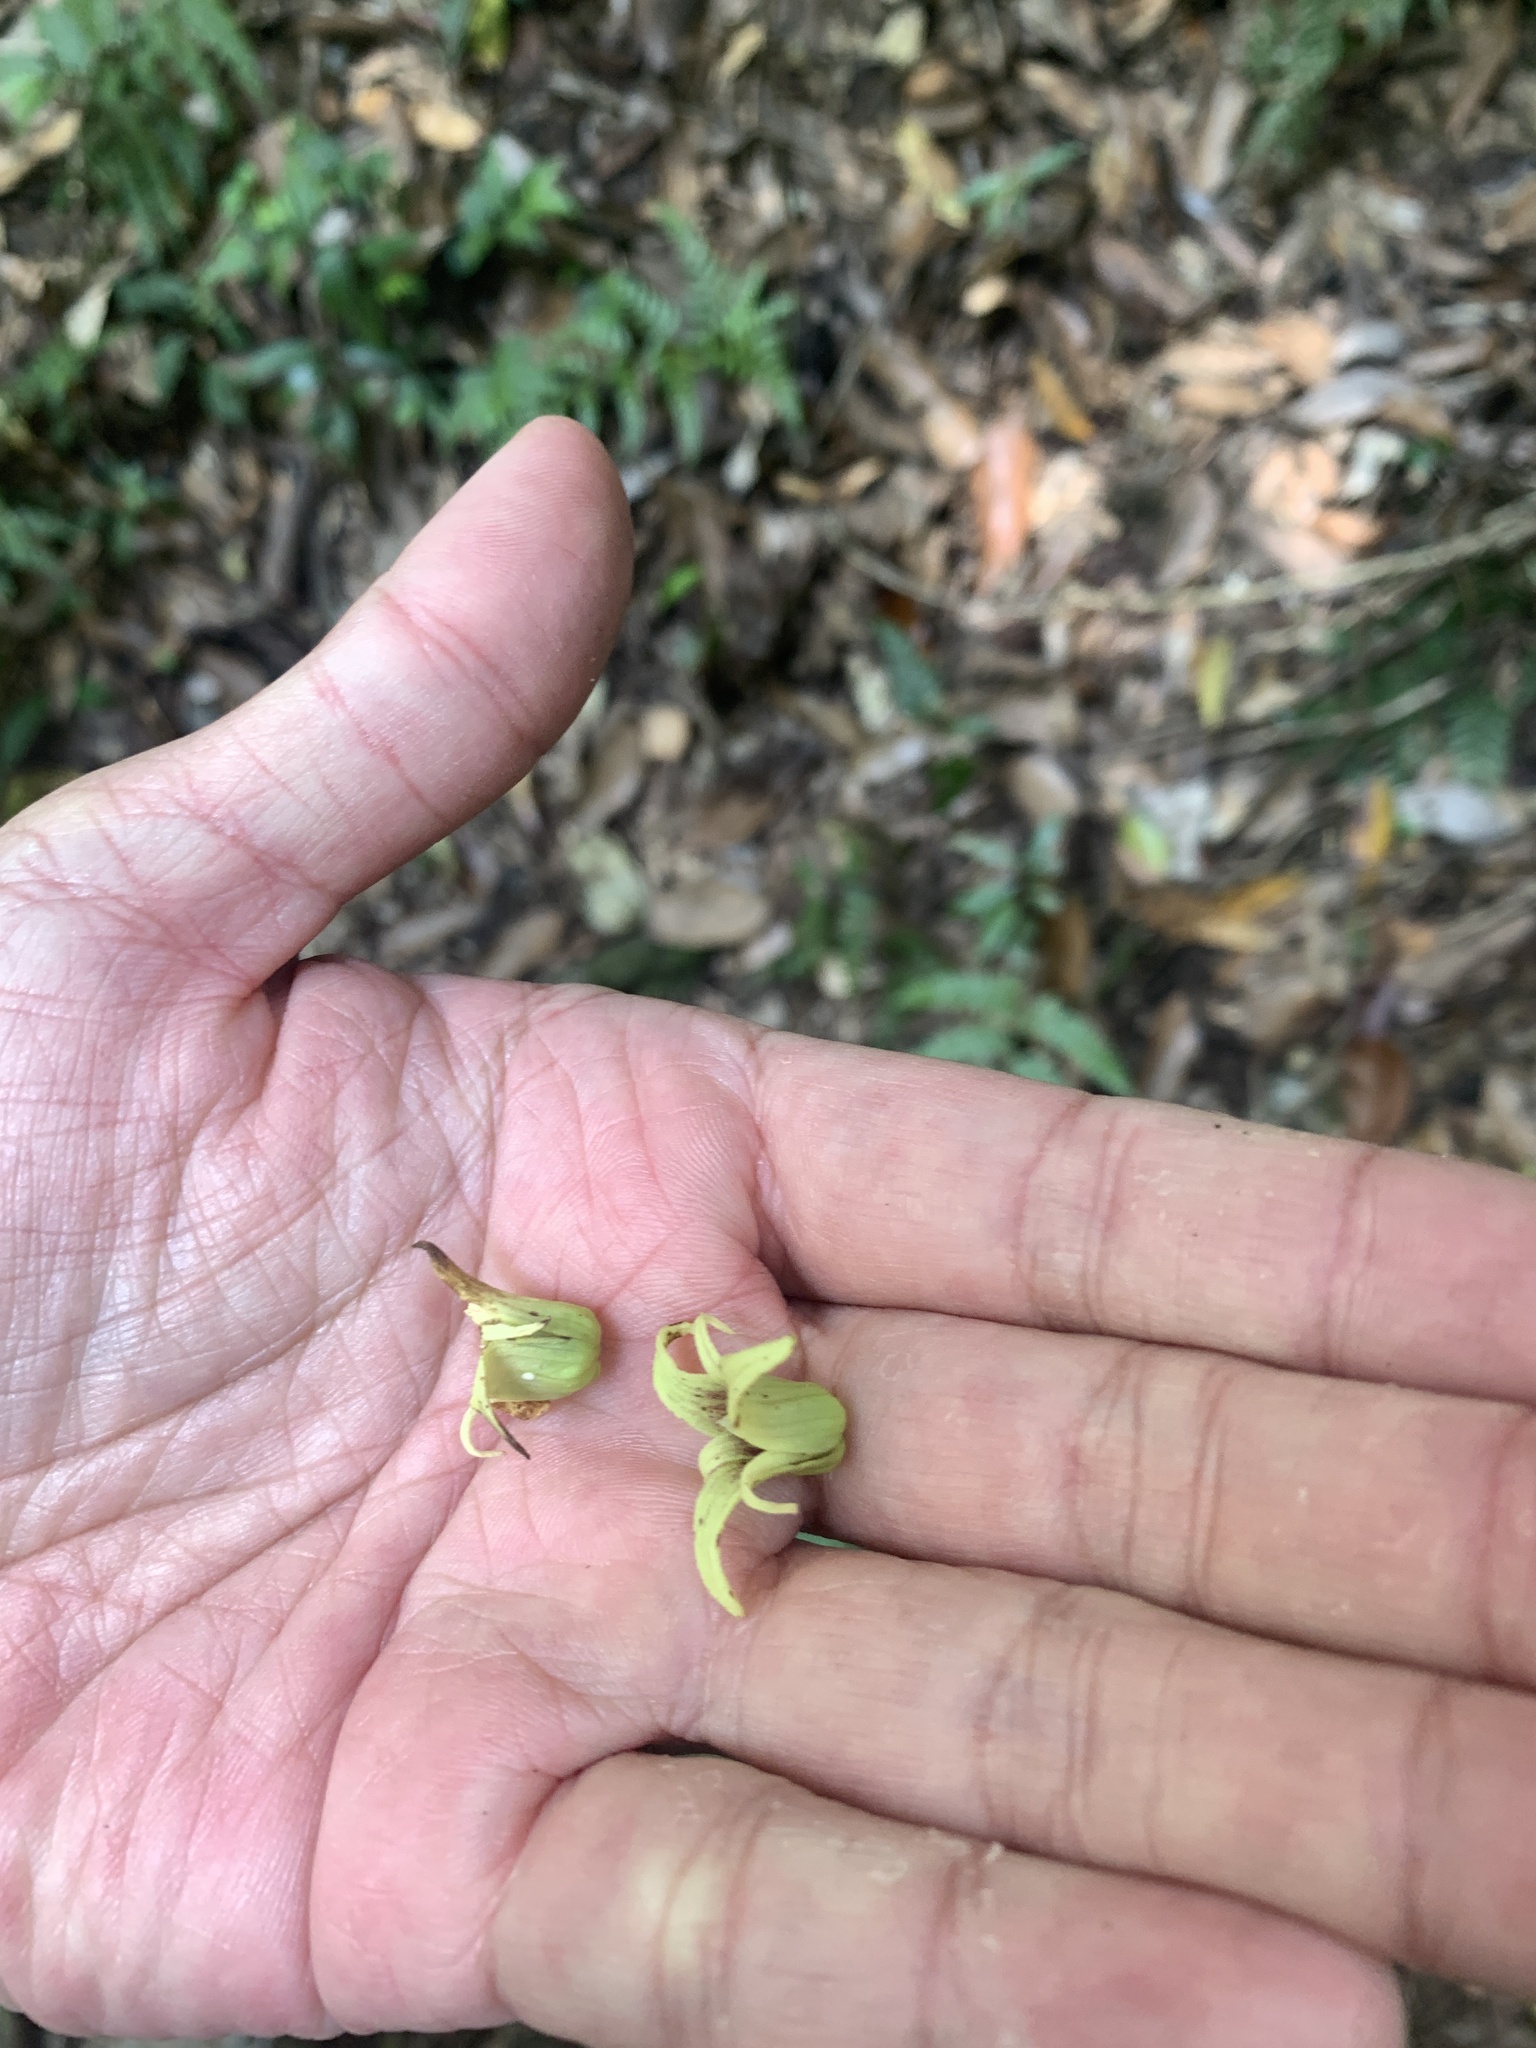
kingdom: Plantae
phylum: Tracheophyta
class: Magnoliopsida
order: Ranunculales
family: Lardizabalaceae
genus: Stauntonia
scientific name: Stauntonia obovatifoliola
